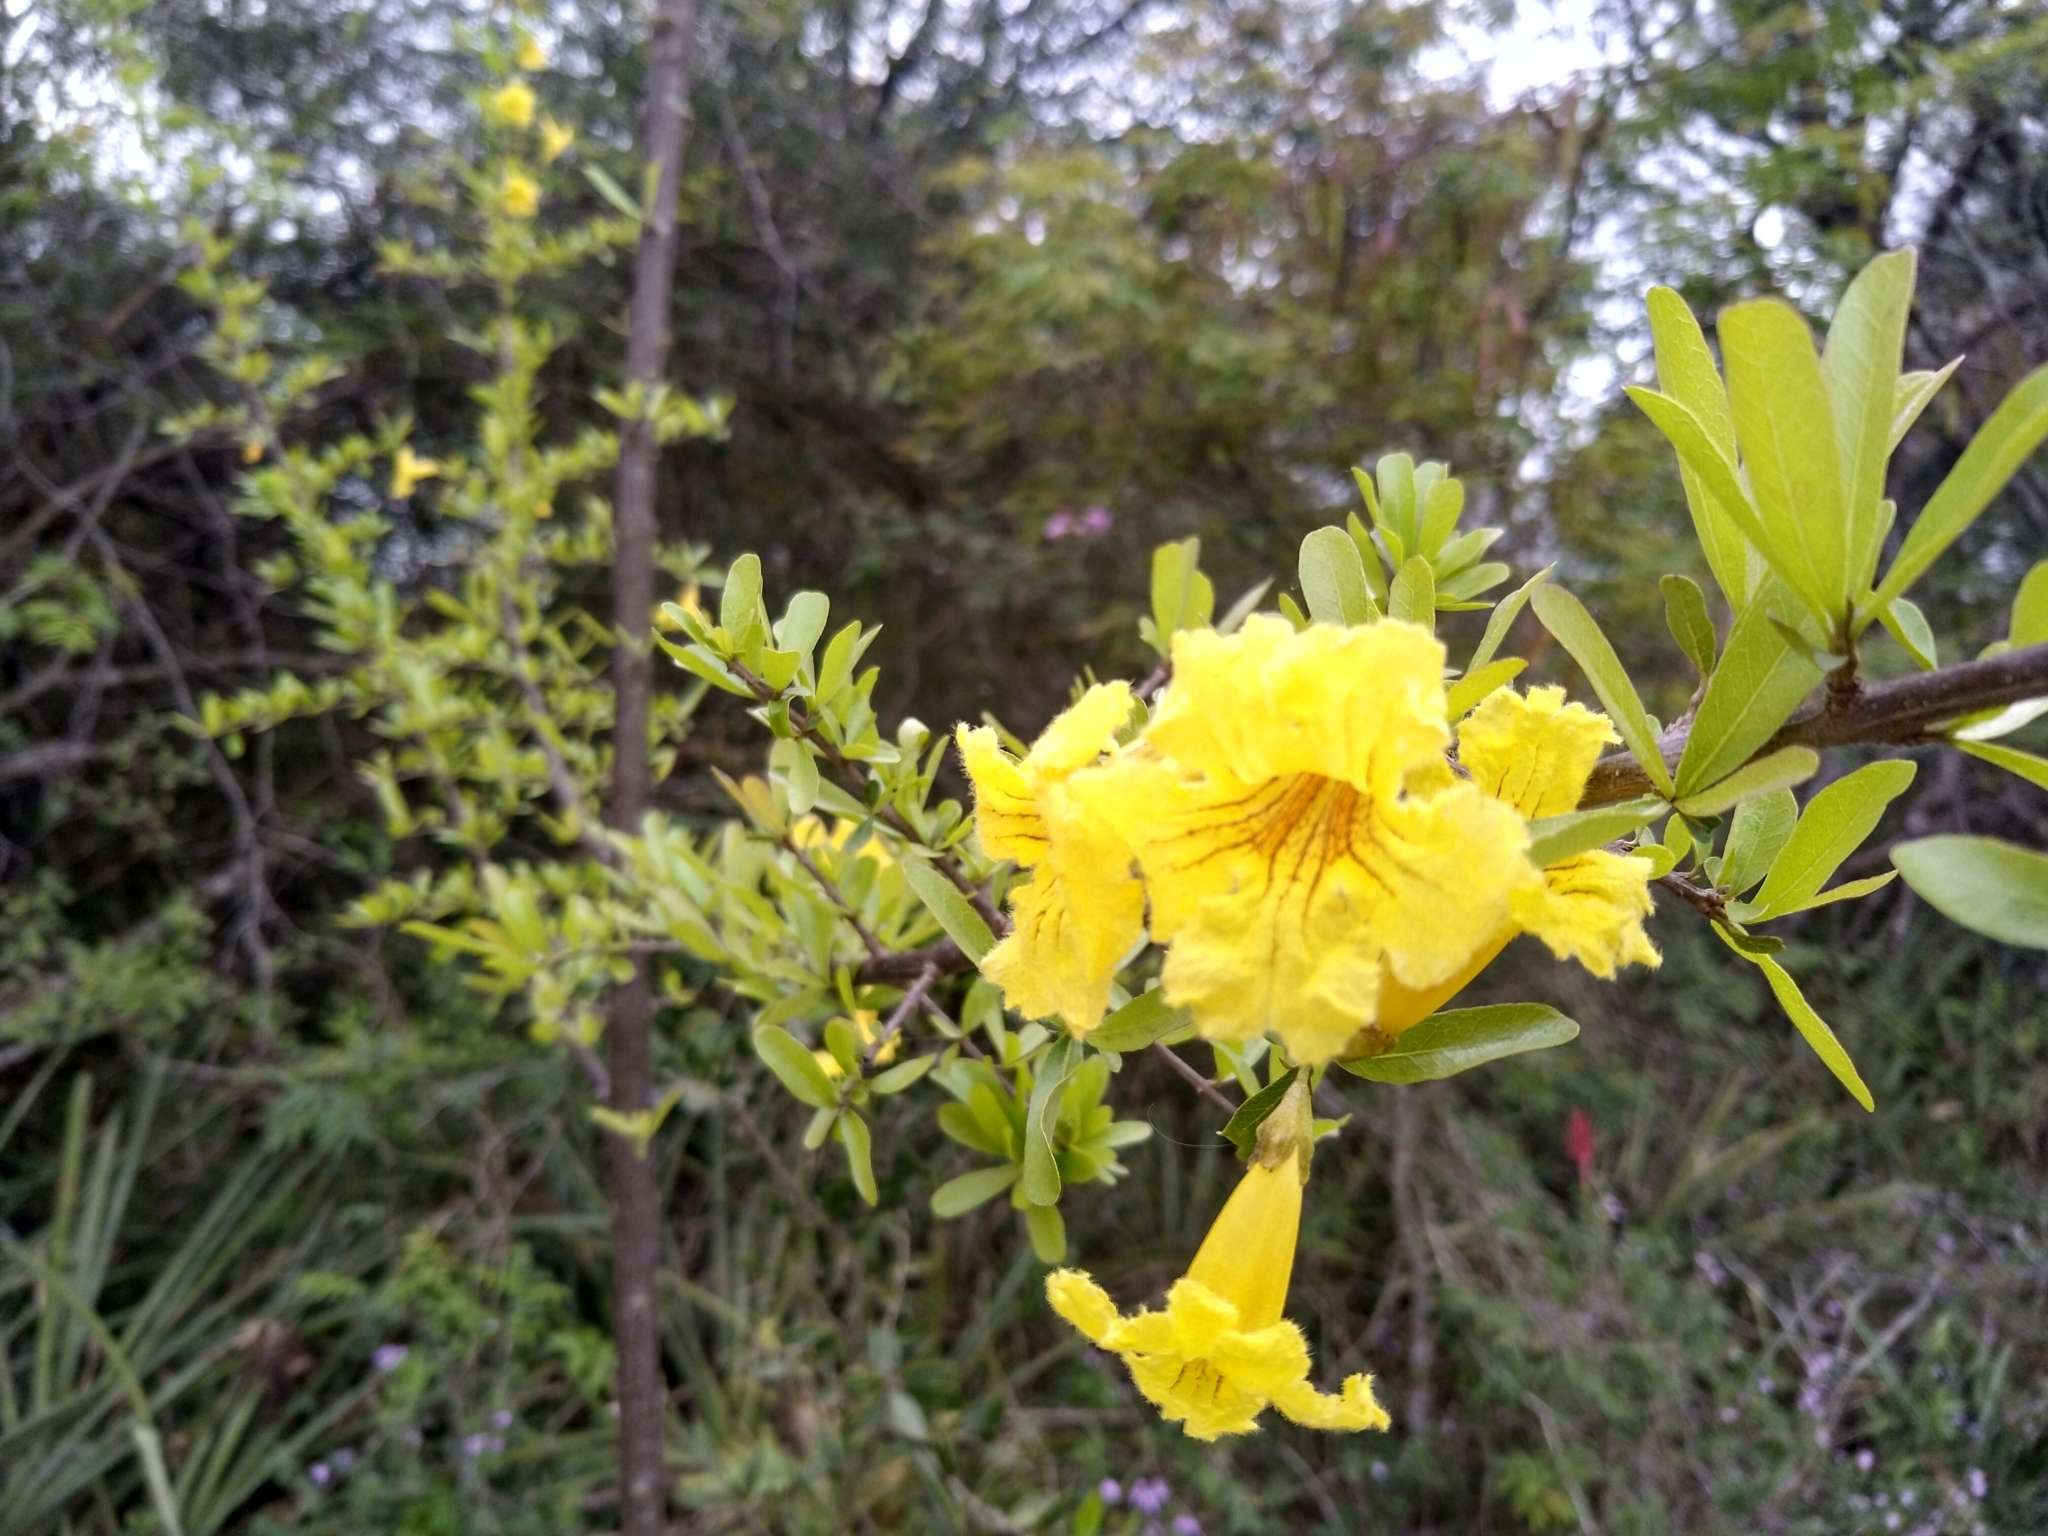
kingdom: Plantae
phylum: Tracheophyta
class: Magnoliopsida
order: Lamiales
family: Bignoniaceae
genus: Tabebuia
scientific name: Tabebuia nodosa
